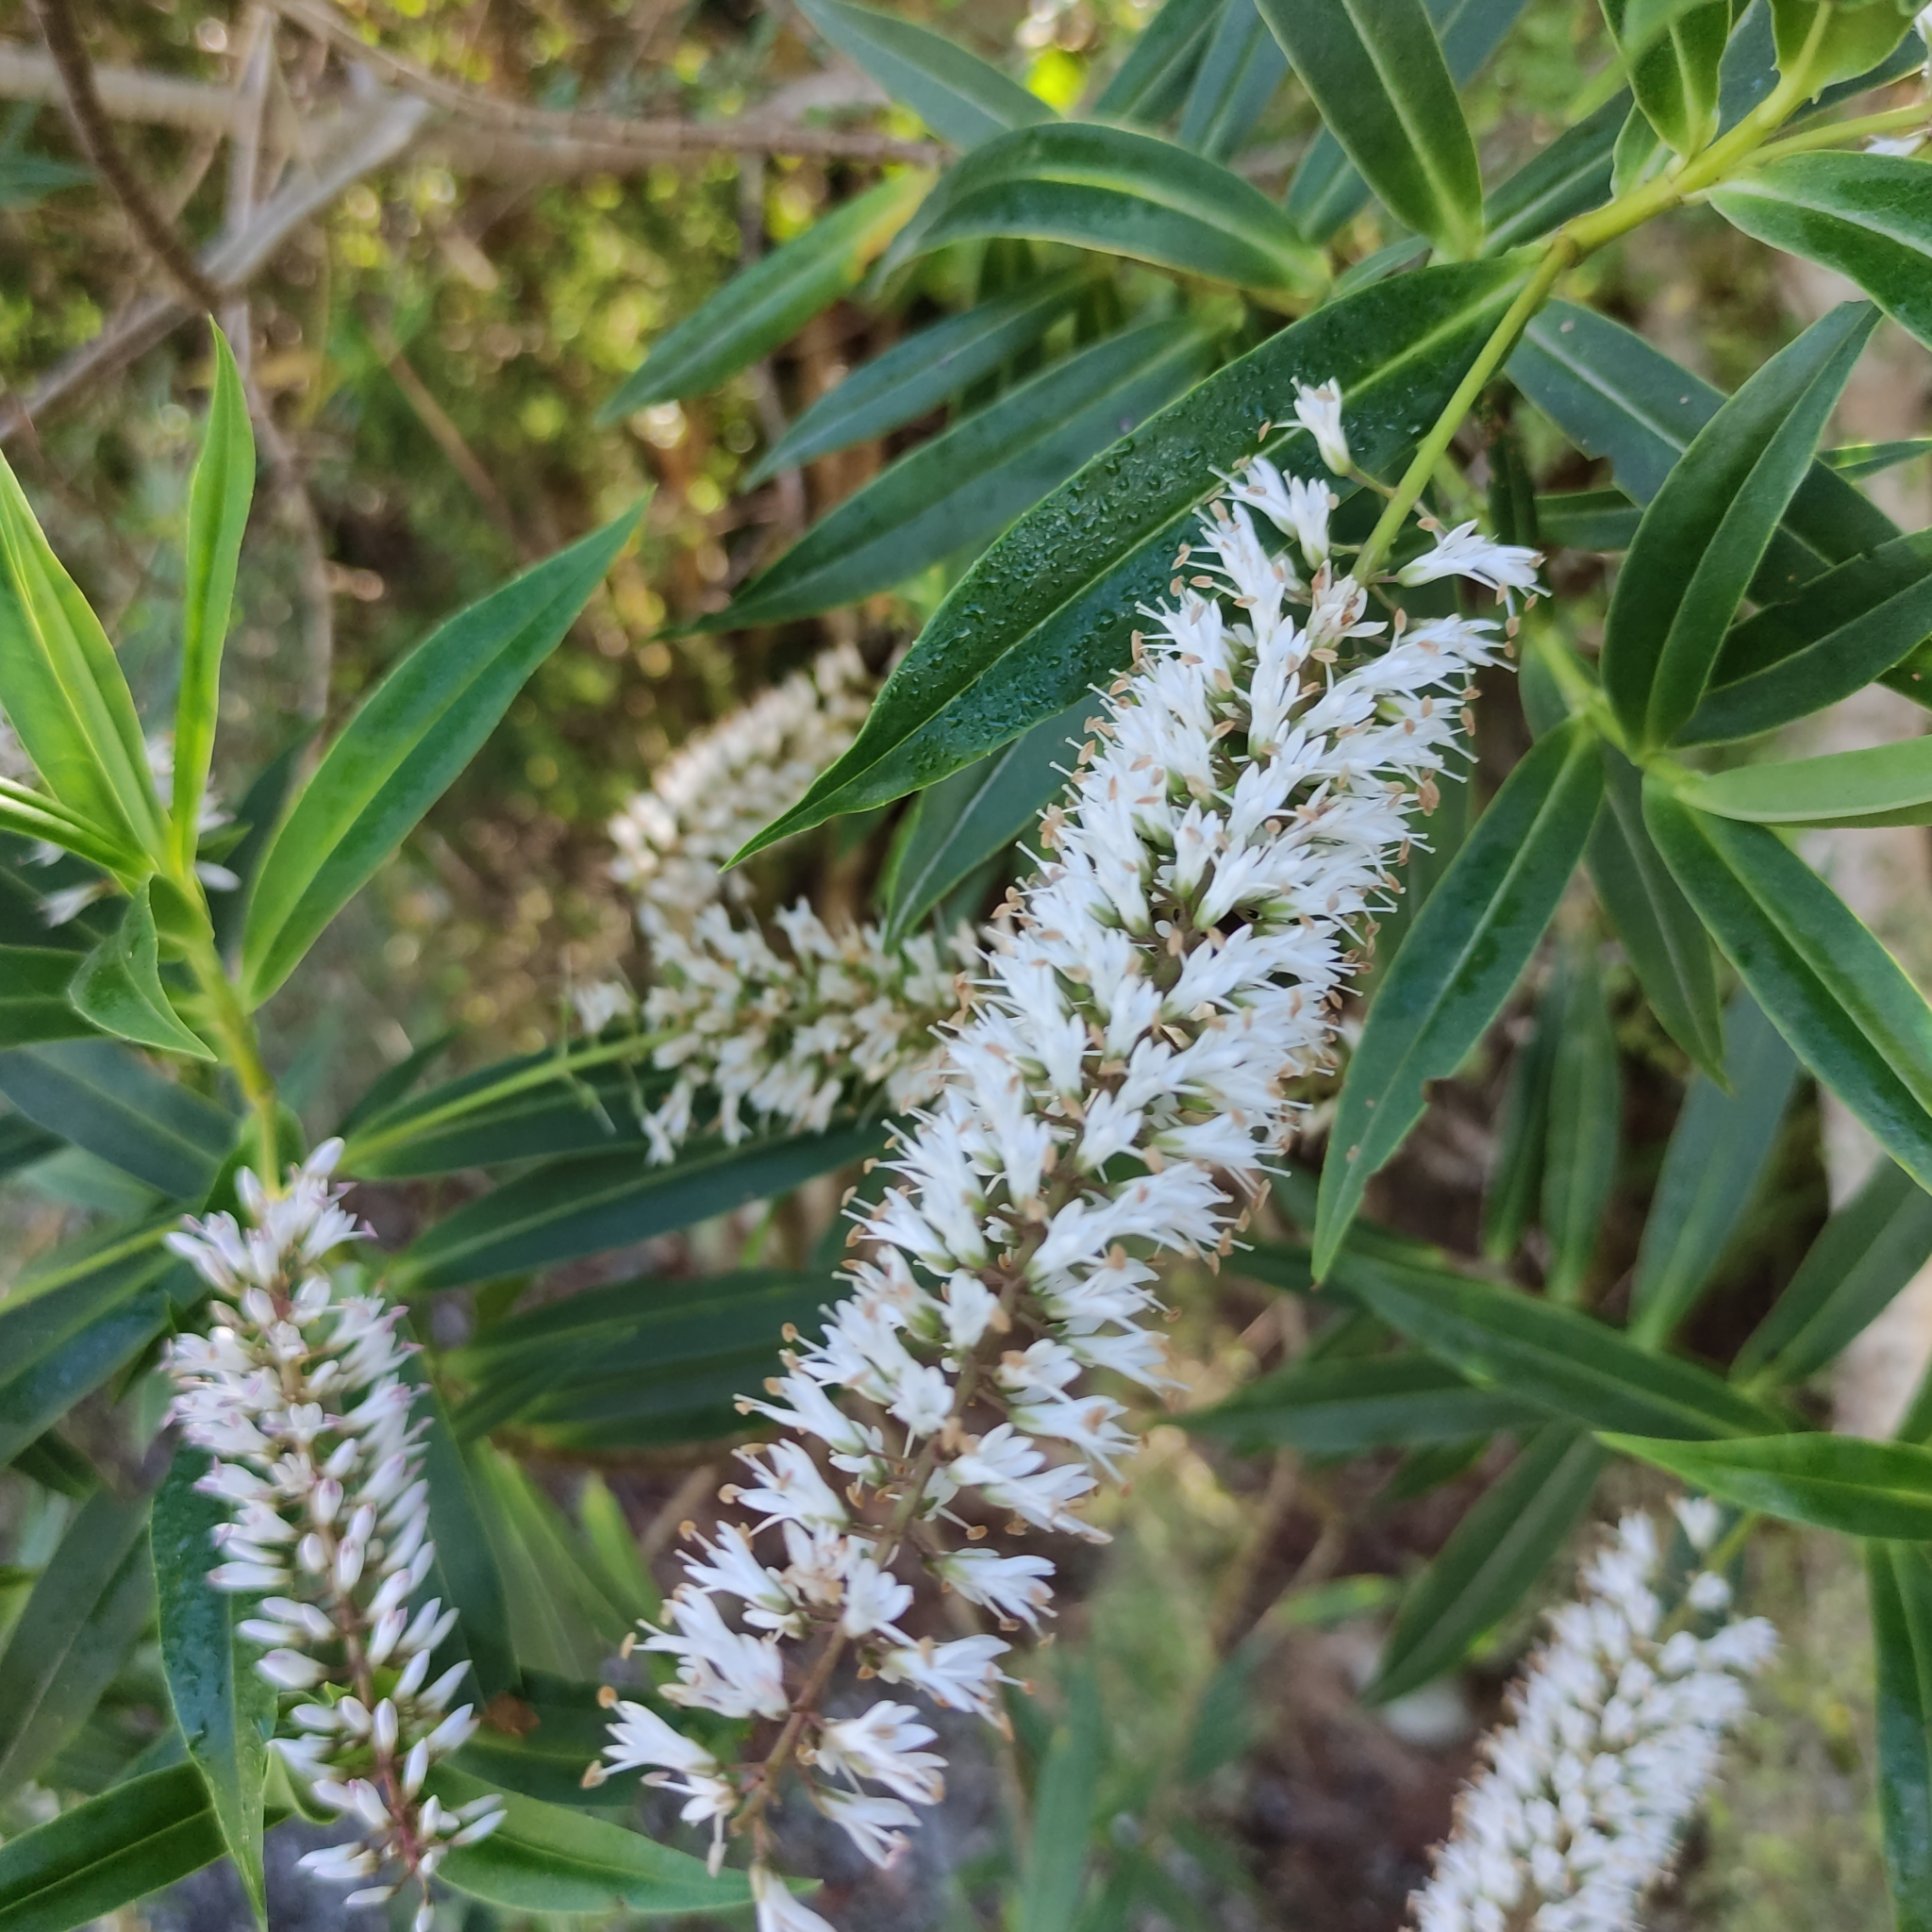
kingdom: Plantae
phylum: Tracheophyta
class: Magnoliopsida
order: Lamiales
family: Plantaginaceae
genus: Veronica
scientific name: Veronica salicifolia
